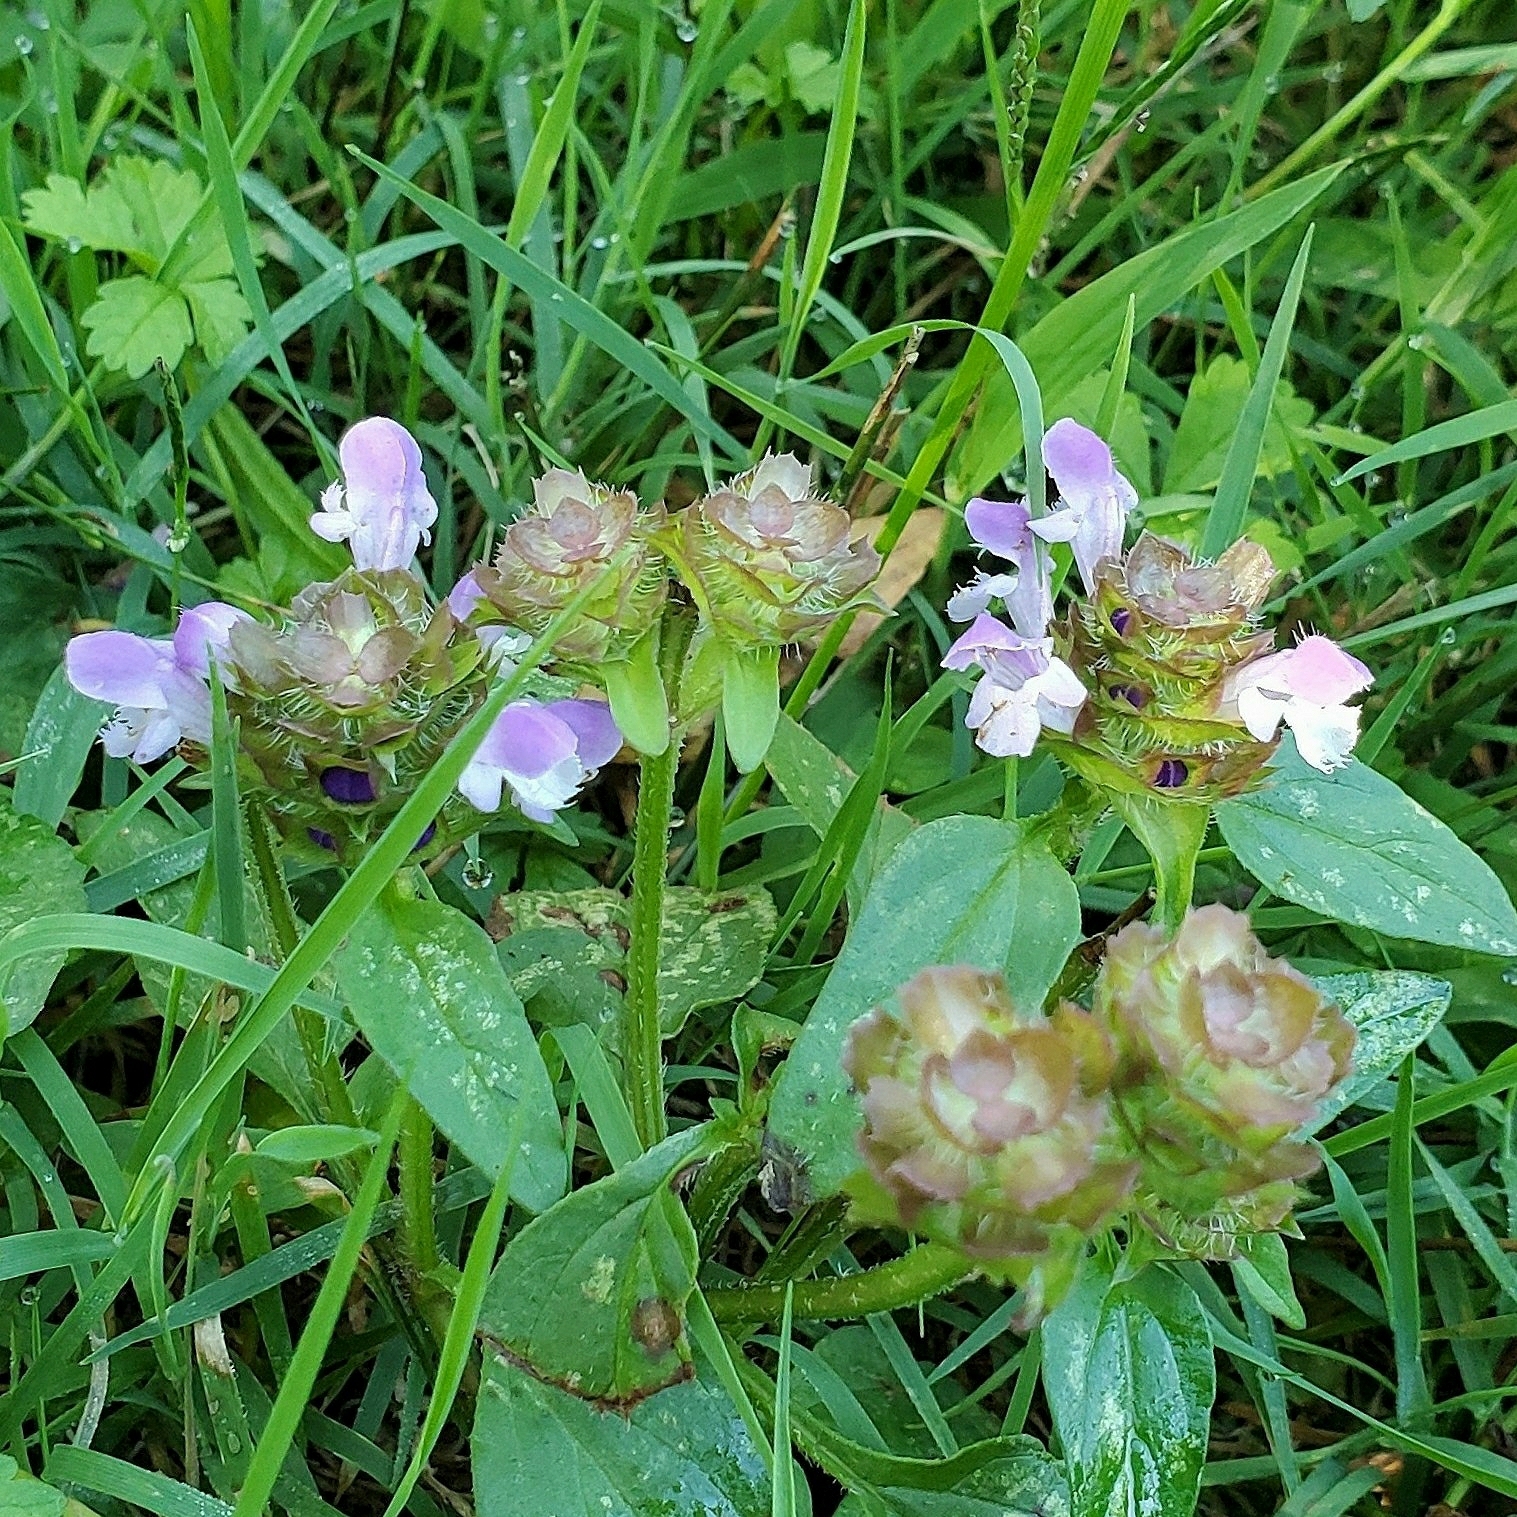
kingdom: Plantae
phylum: Tracheophyta
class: Magnoliopsida
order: Lamiales
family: Lamiaceae
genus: Prunella
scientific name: Prunella vulgaris
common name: Heal-all
